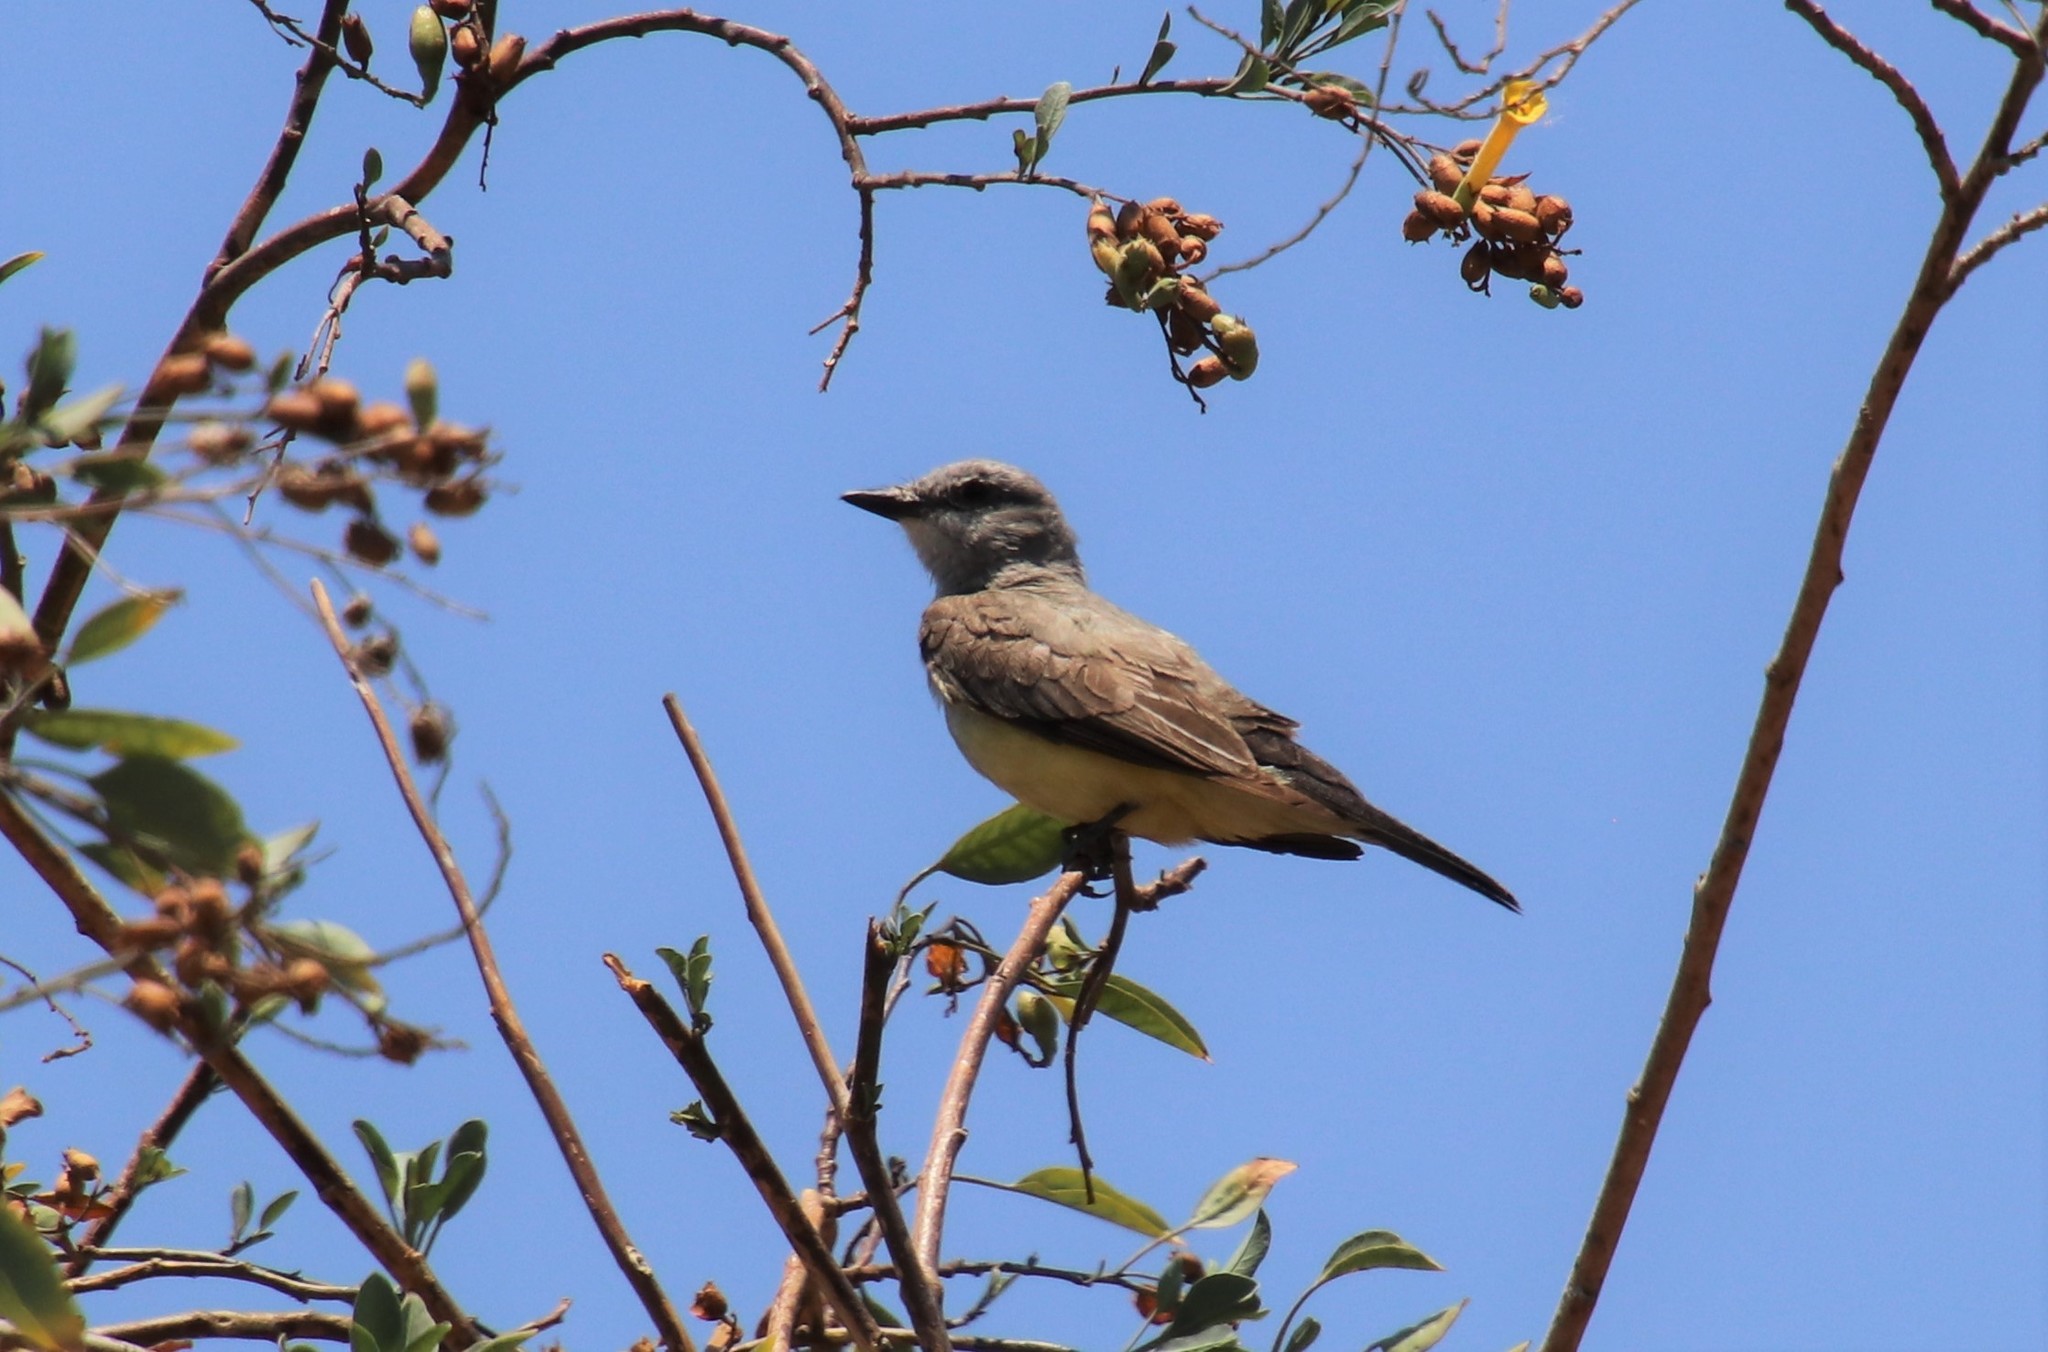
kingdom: Animalia
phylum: Chordata
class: Aves
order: Passeriformes
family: Tyrannidae
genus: Tyrannus
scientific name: Tyrannus verticalis
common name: Western kingbird
